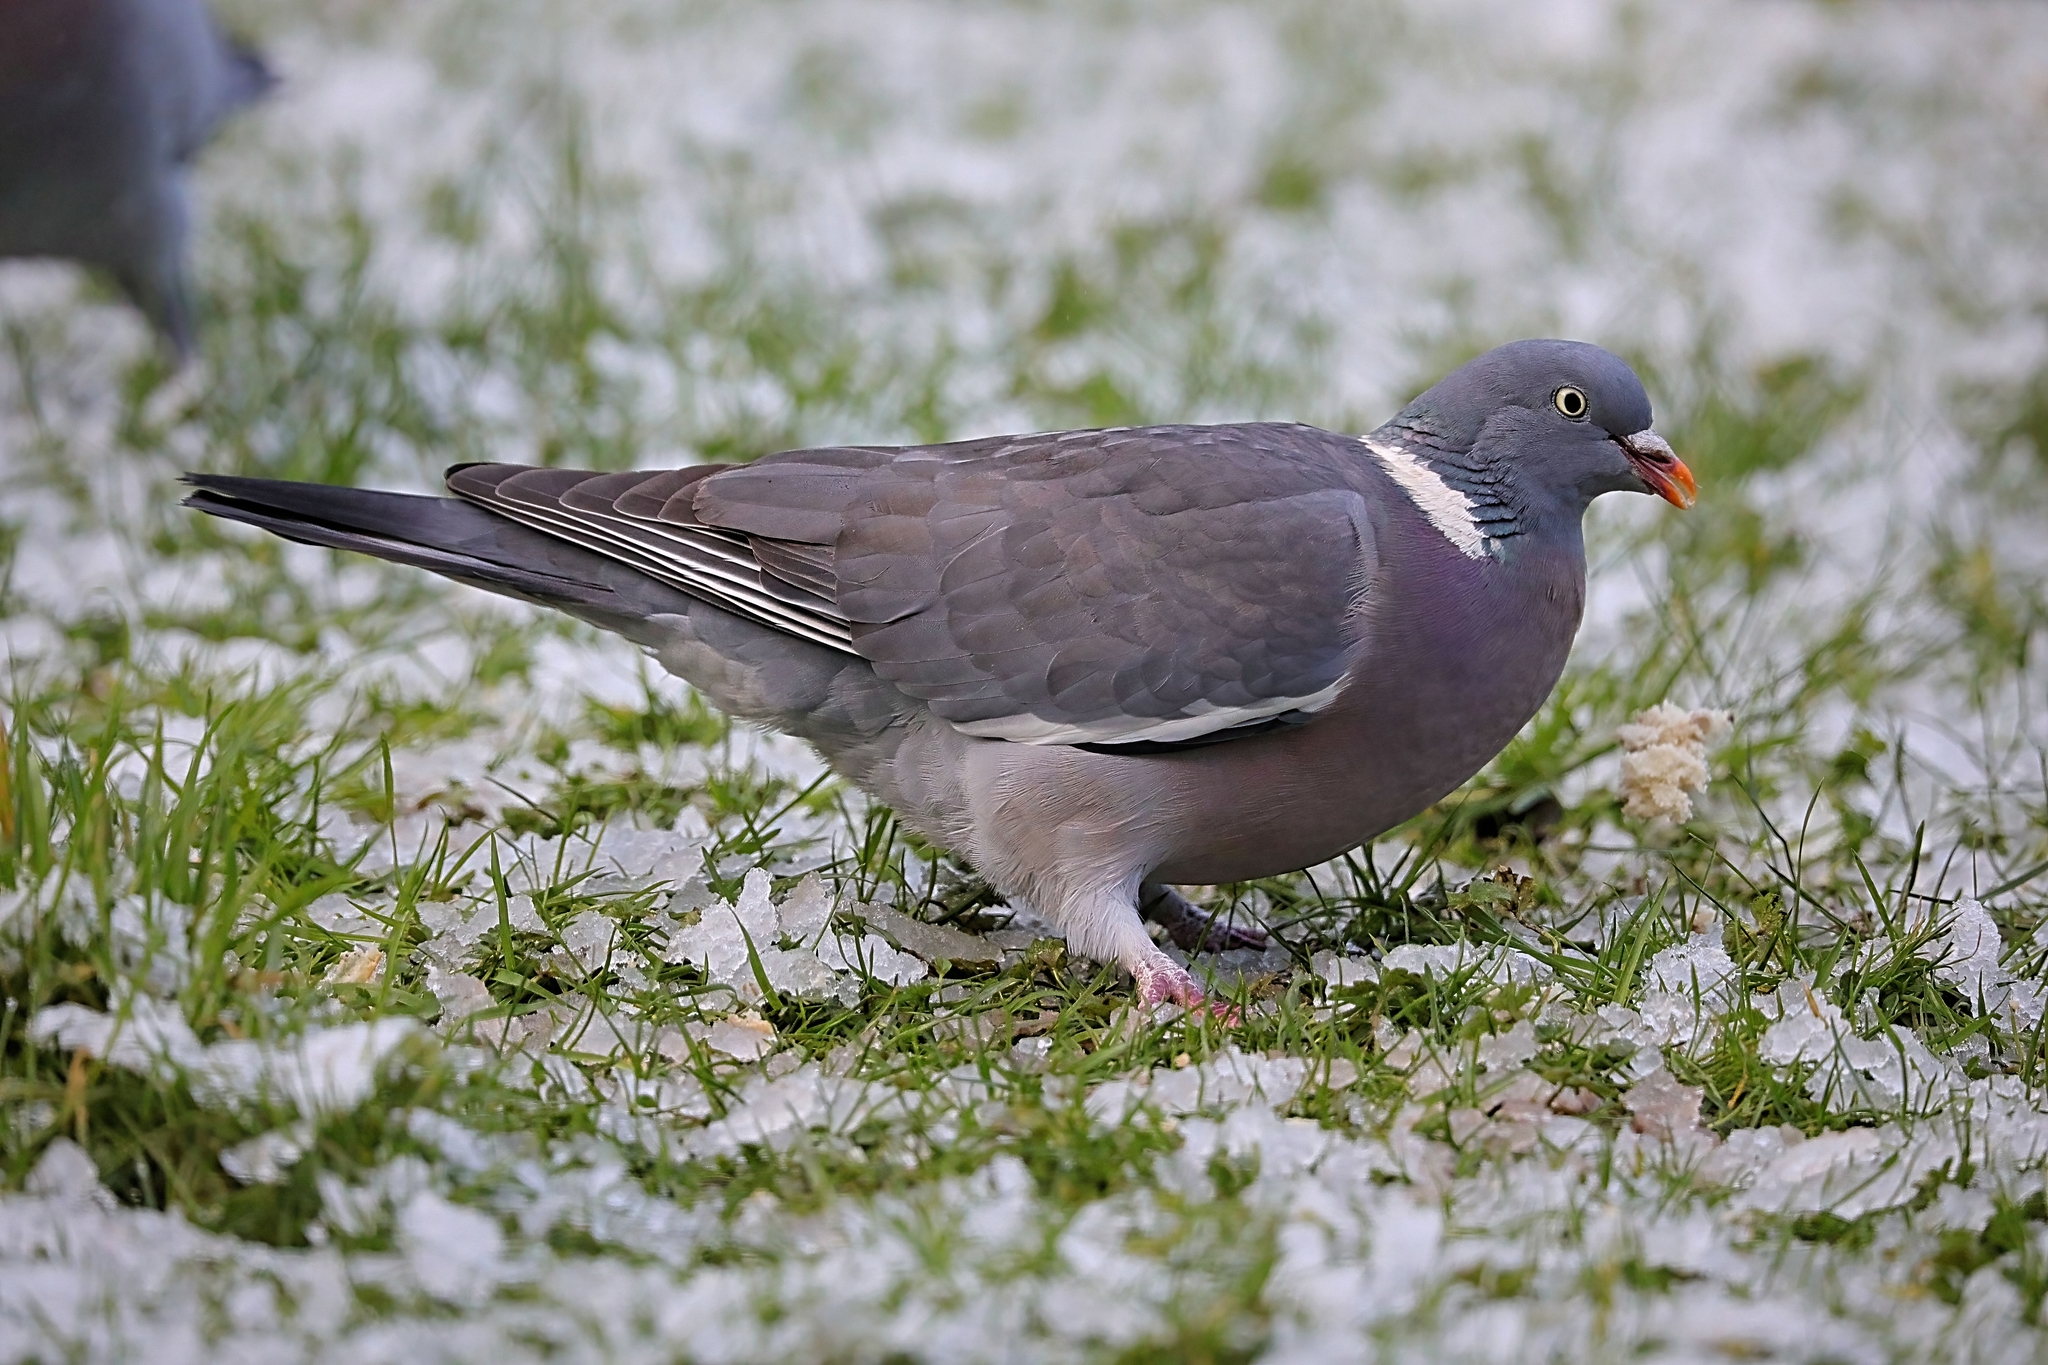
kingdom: Animalia
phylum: Chordata
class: Aves
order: Columbiformes
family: Columbidae
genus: Columba
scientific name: Columba palumbus
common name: Common wood pigeon
